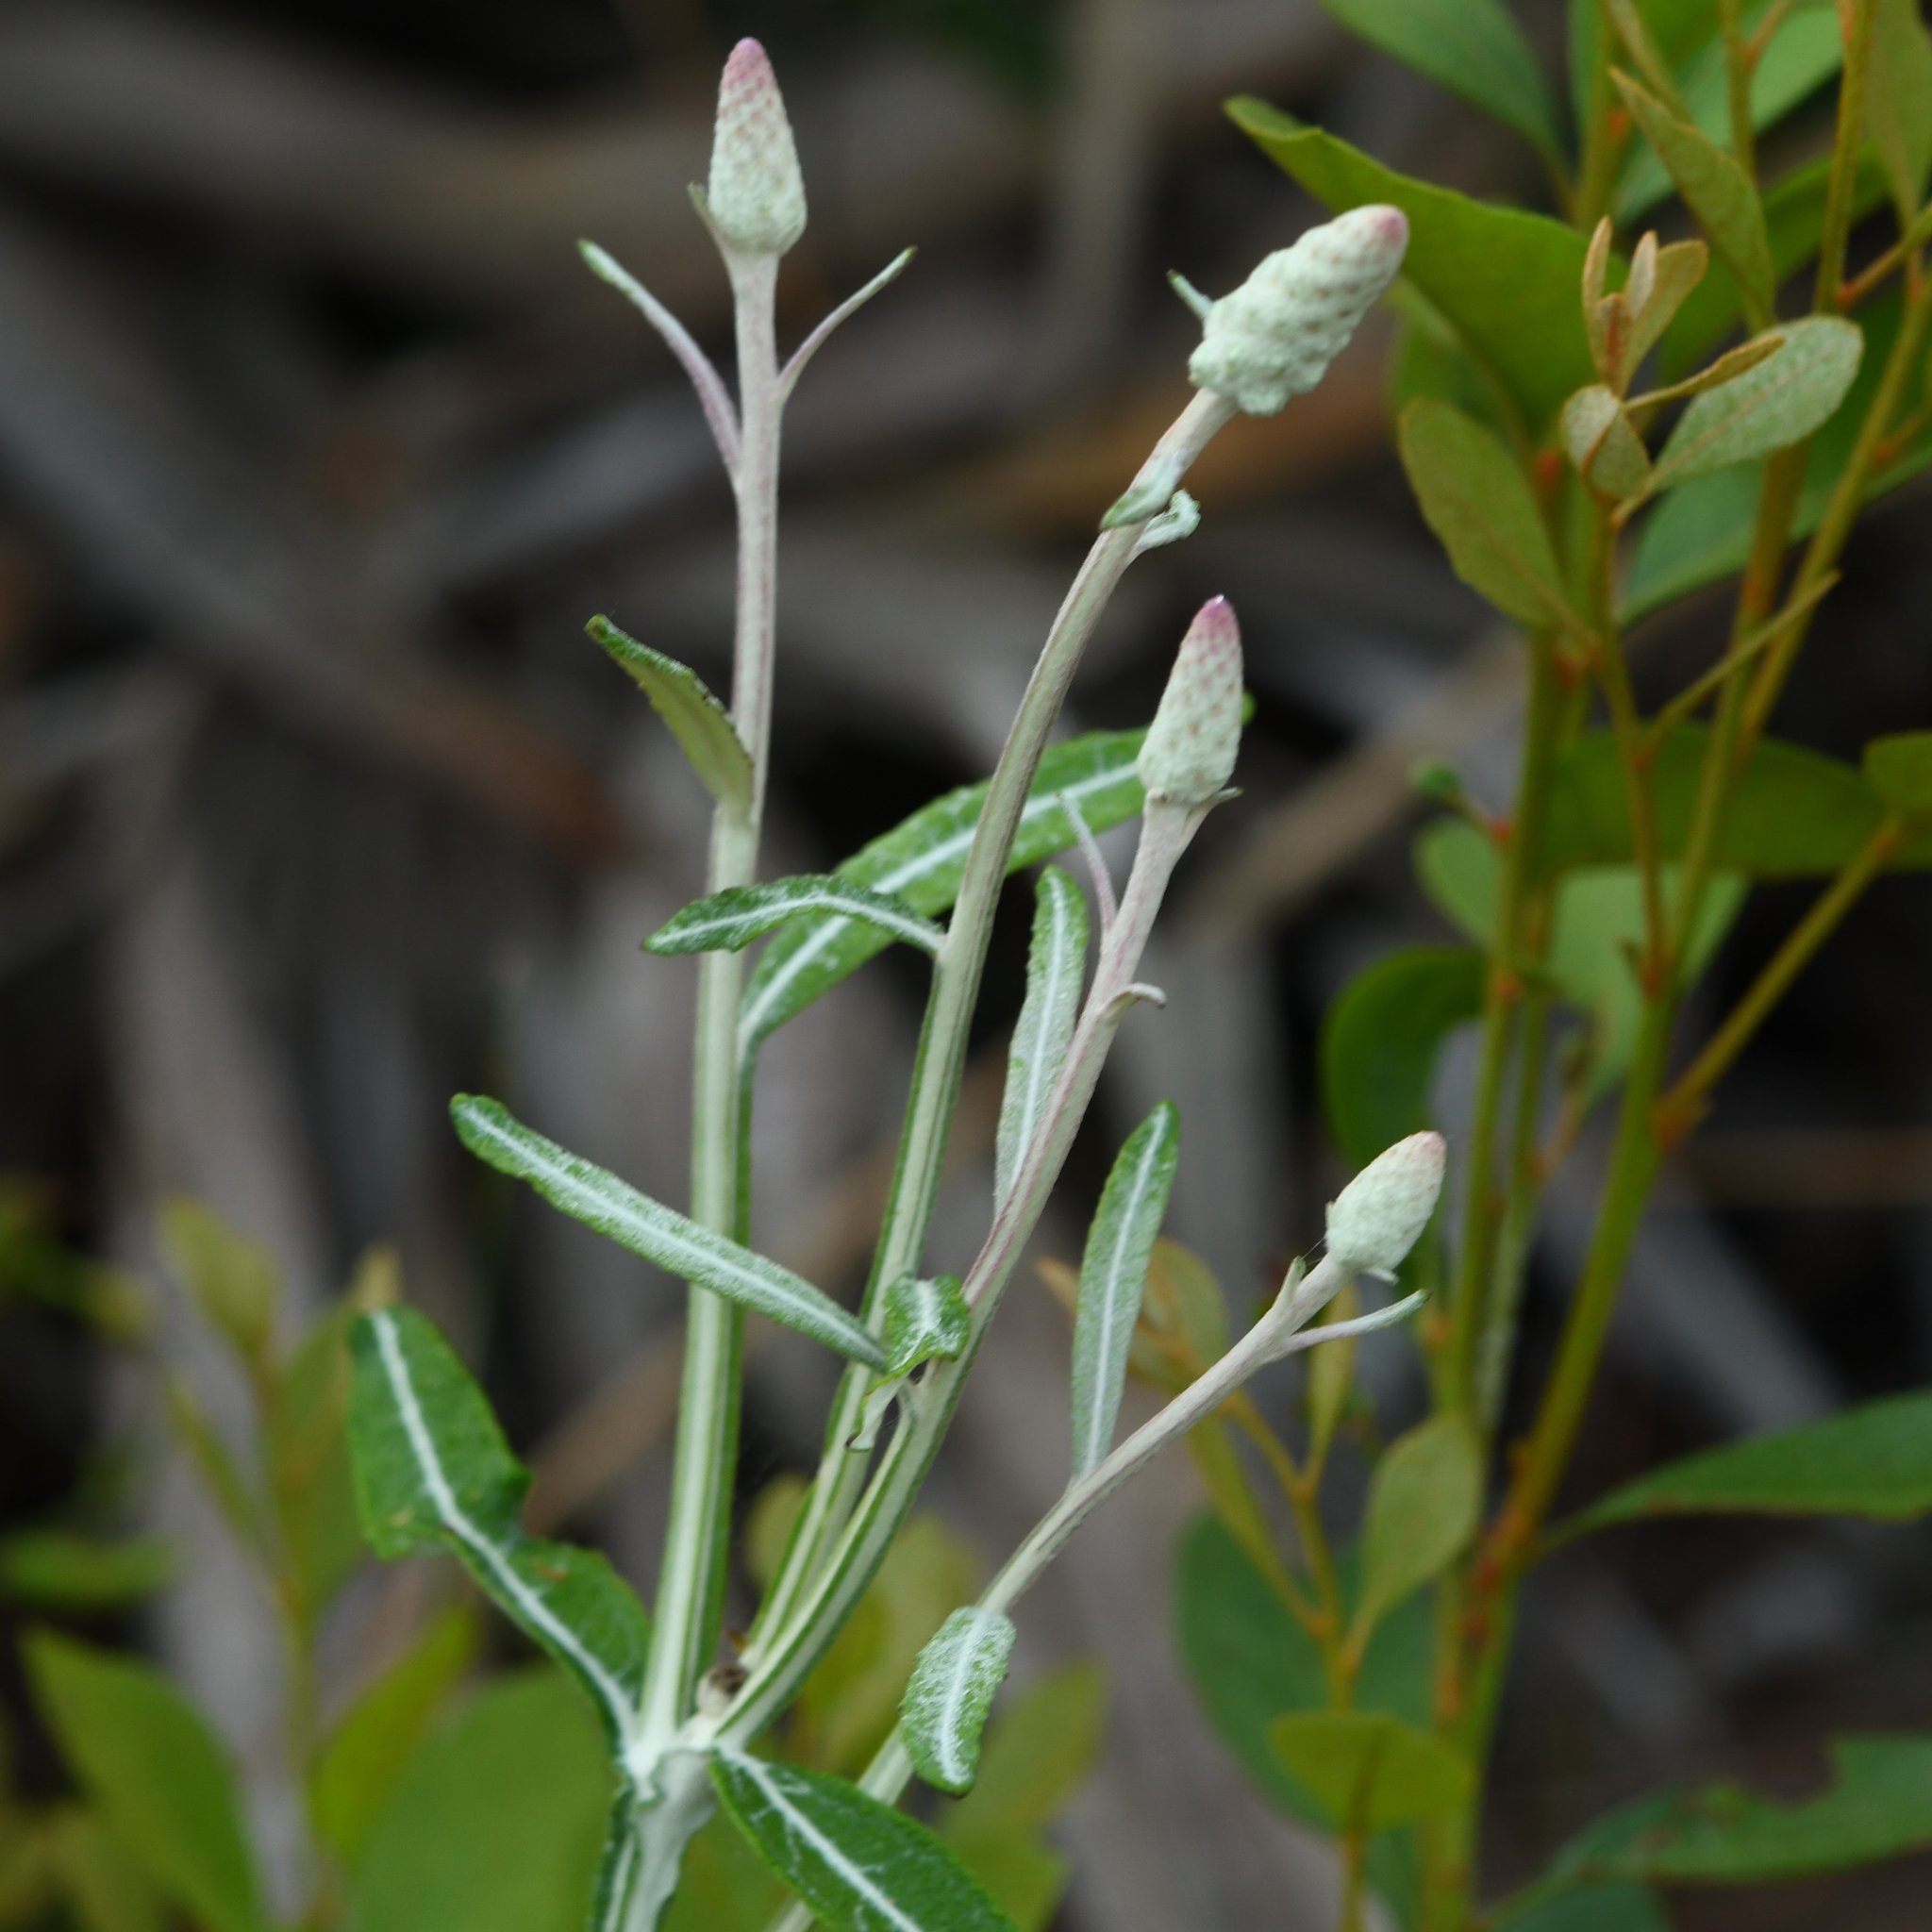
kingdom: Plantae
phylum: Tracheophyta
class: Magnoliopsida
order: Asterales
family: Asteraceae
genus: Pterocaulon
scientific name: Pterocaulon pycnostachyum
